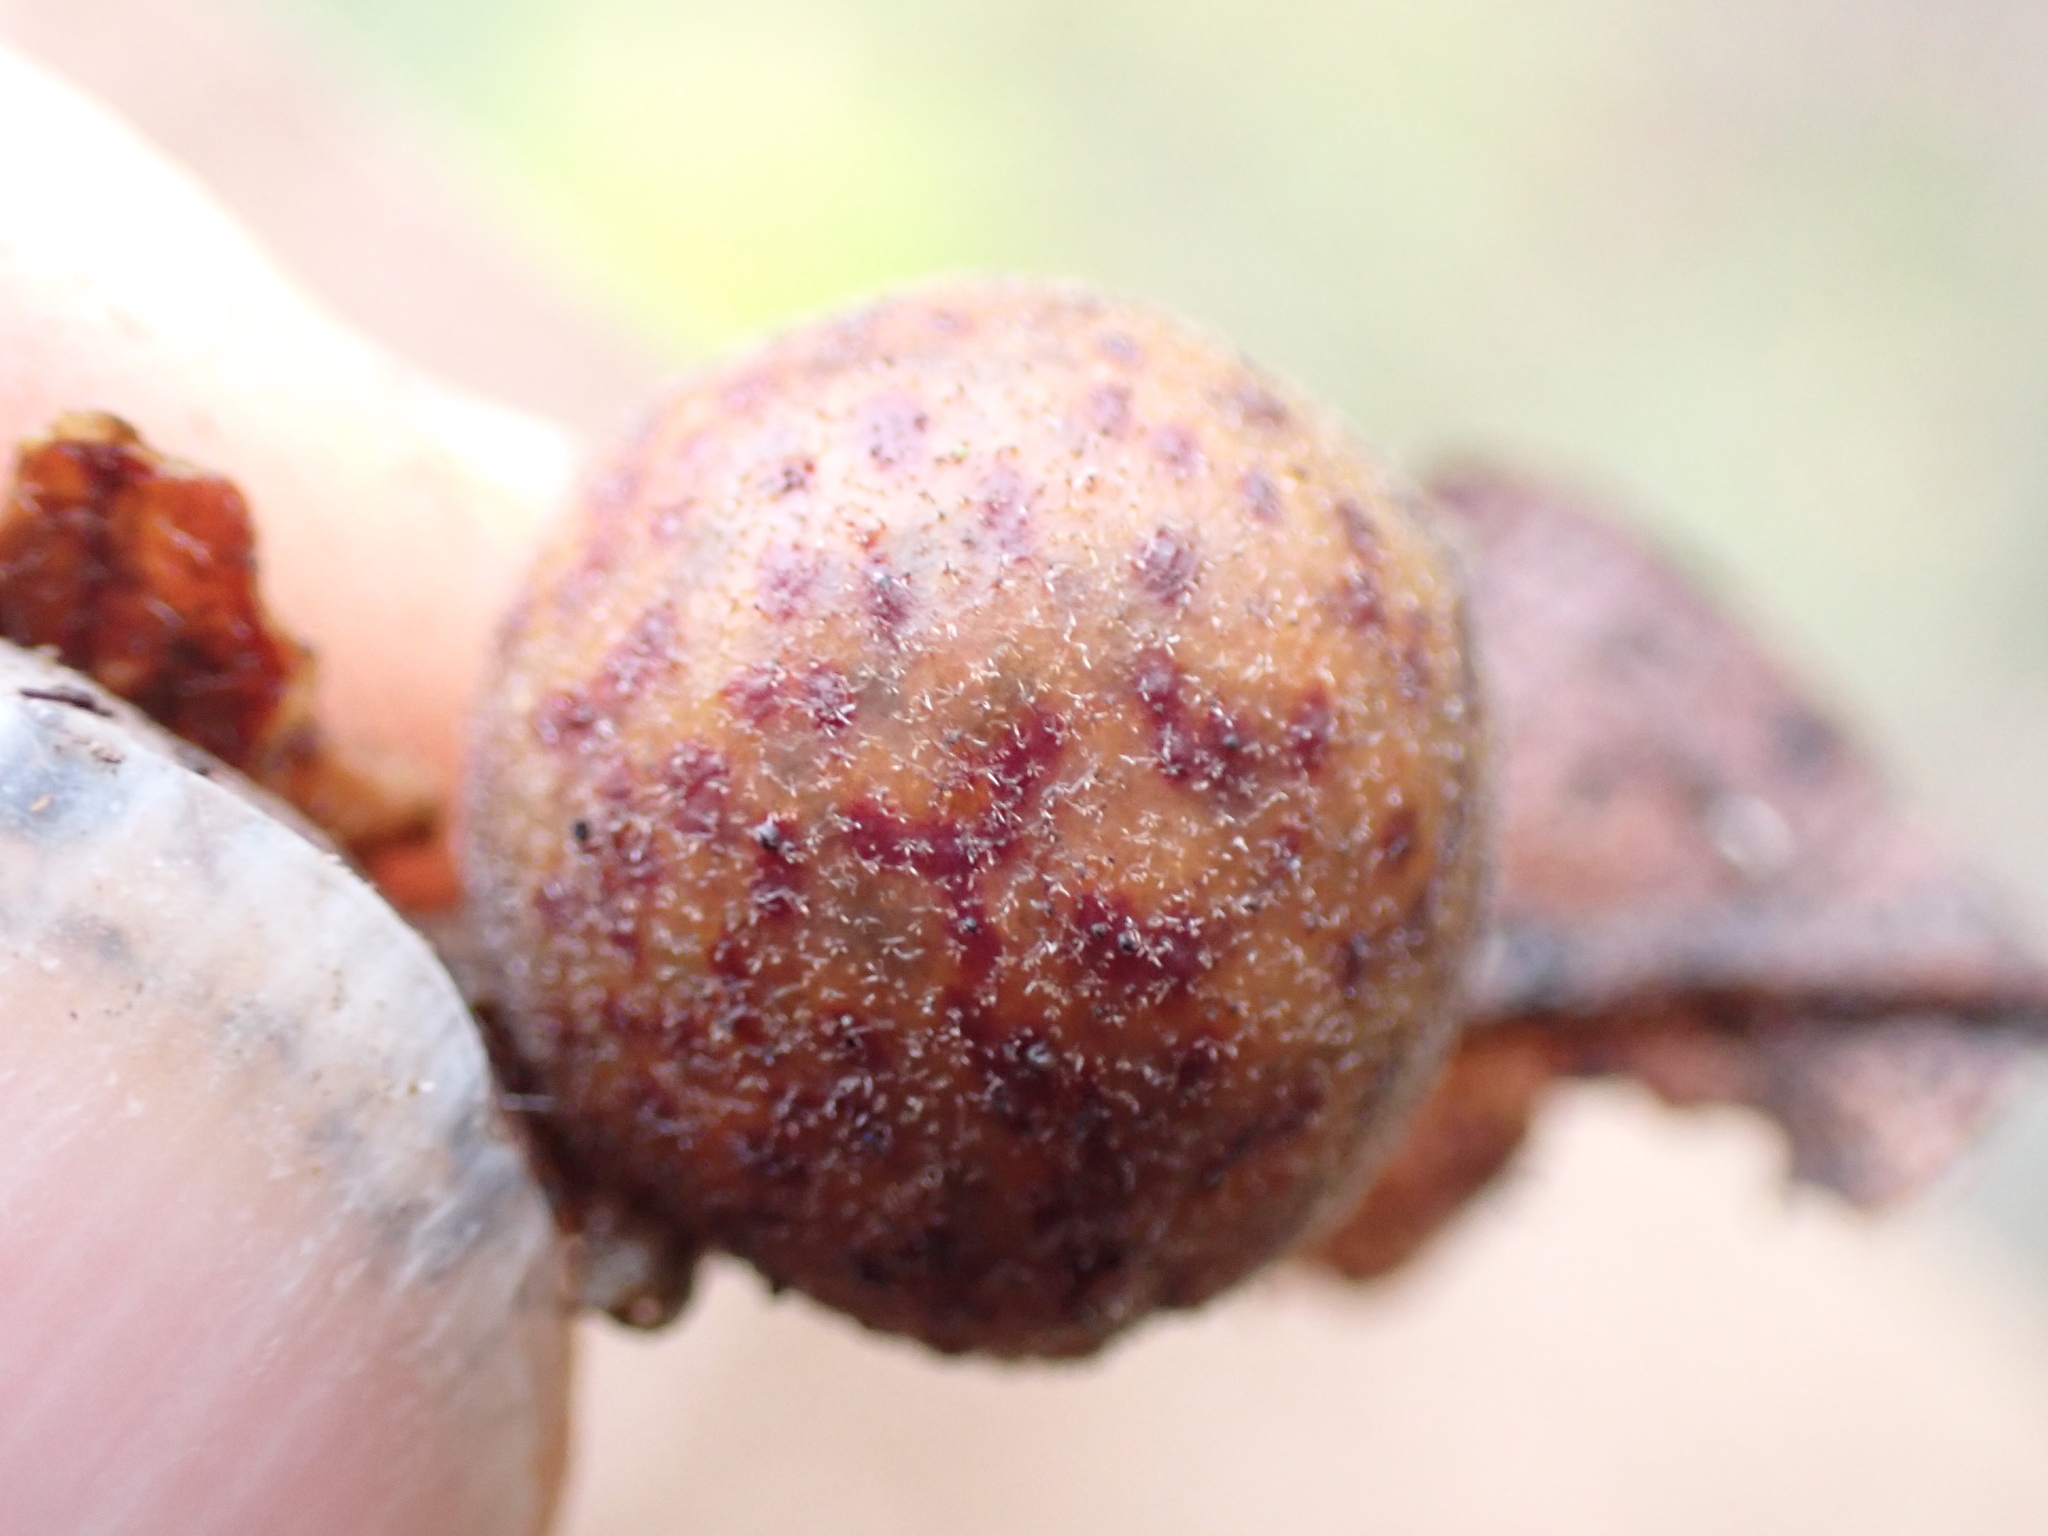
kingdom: Animalia
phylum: Arthropoda
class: Insecta
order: Hymenoptera
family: Cynipidae
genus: Cynips
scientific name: Cynips
